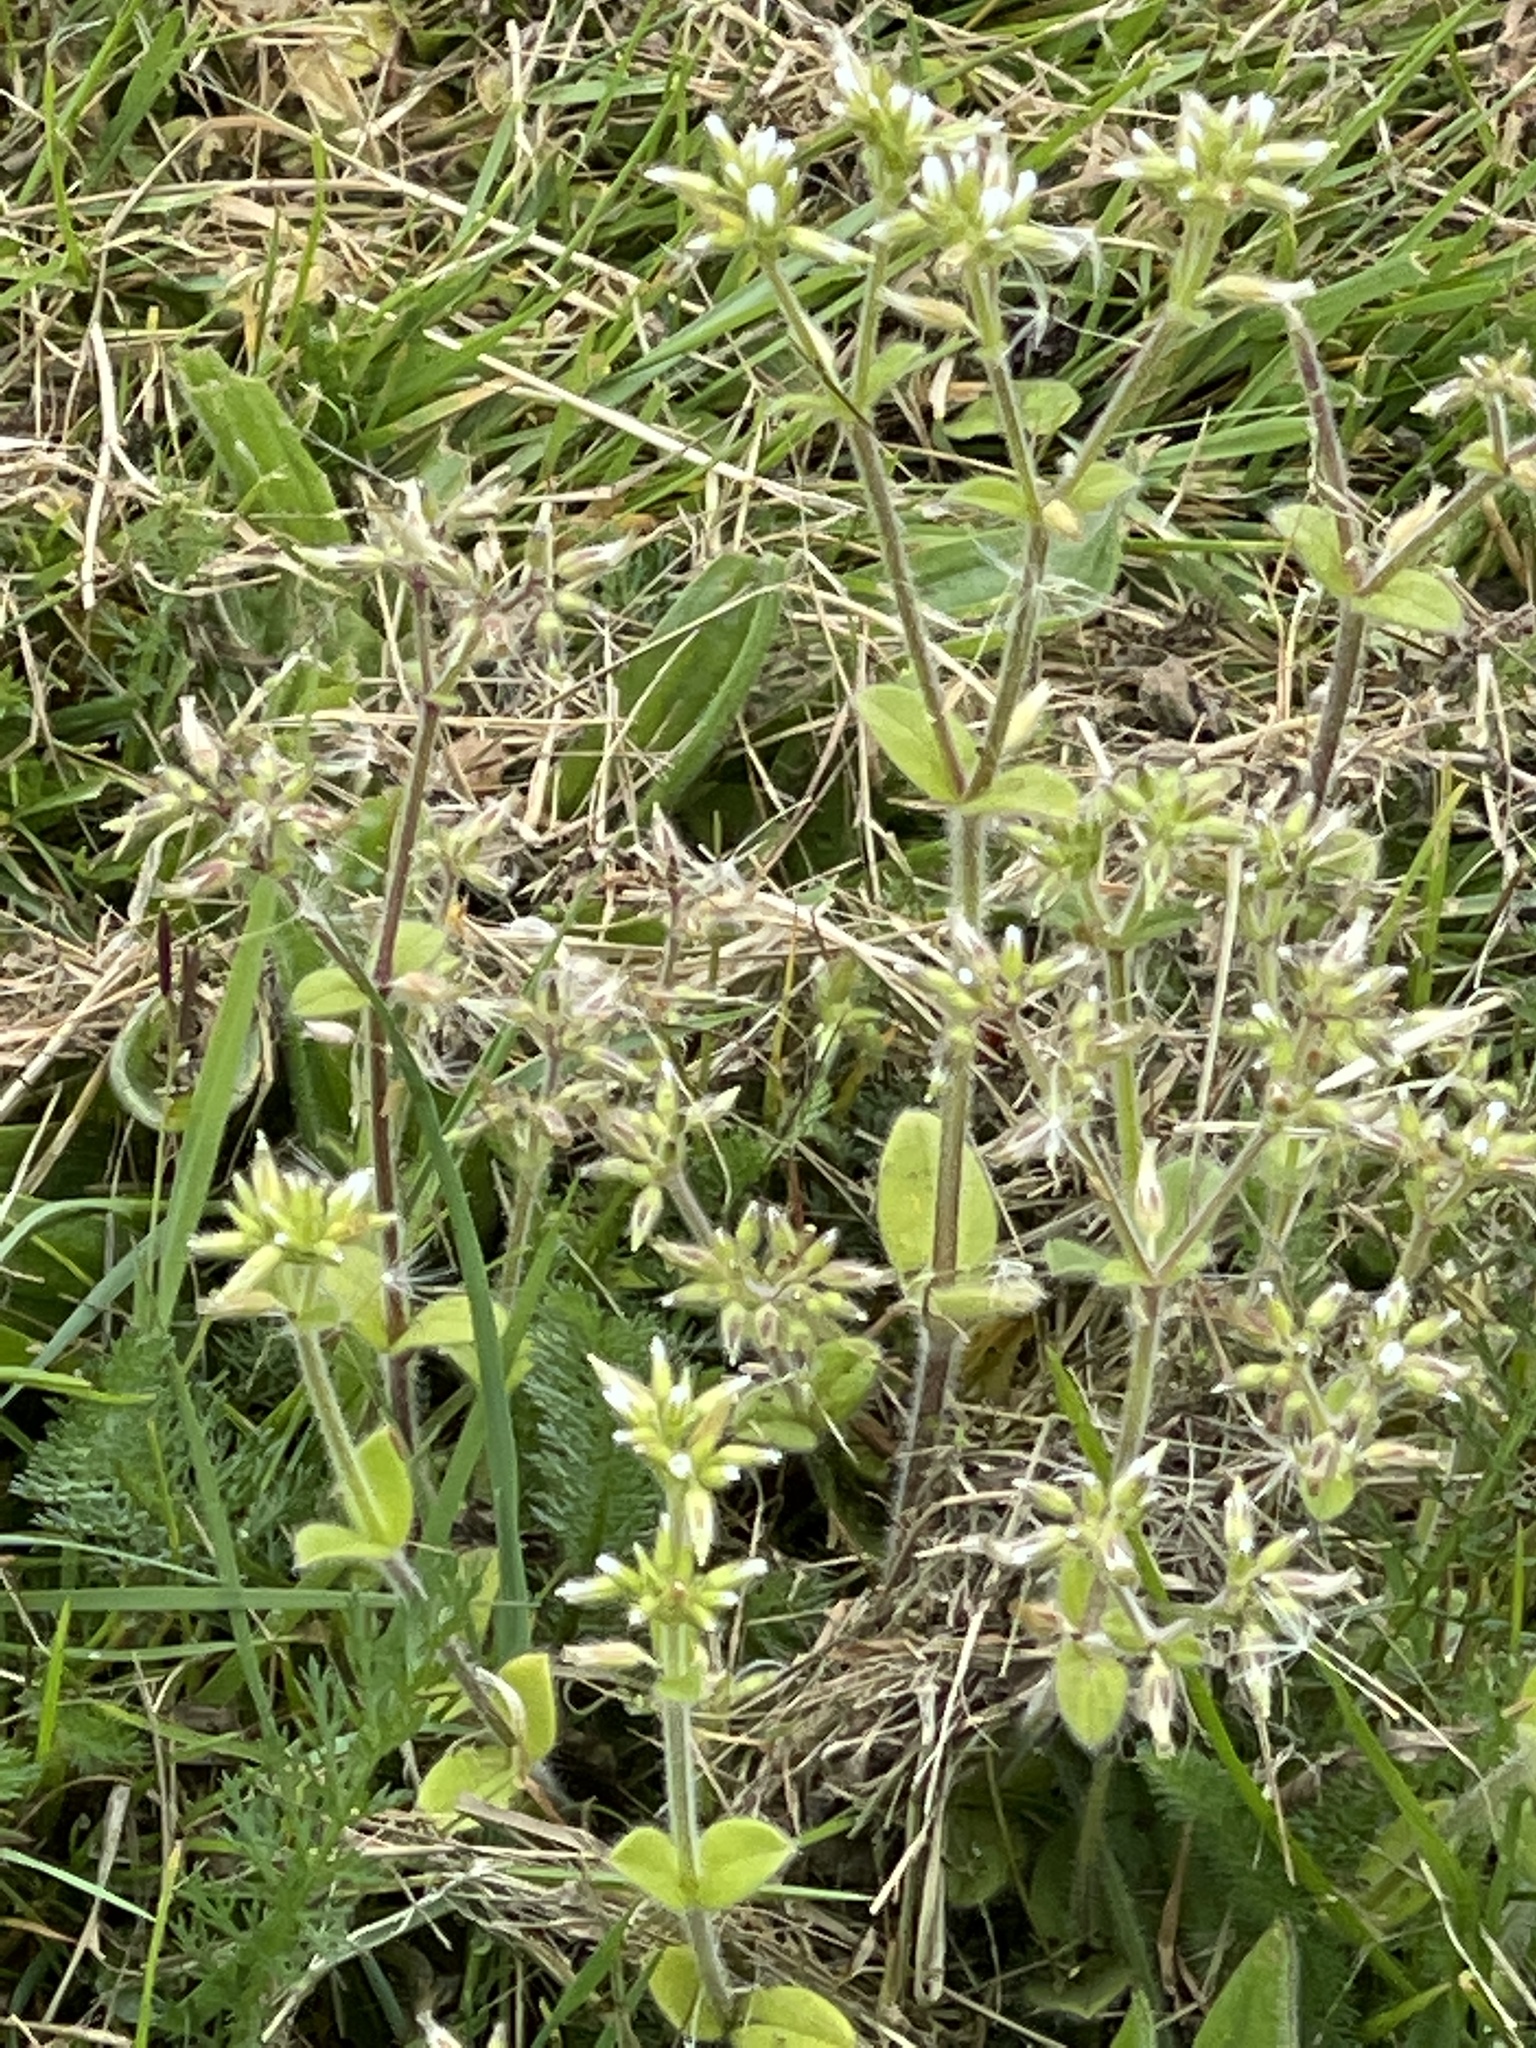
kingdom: Plantae
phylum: Tracheophyta
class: Magnoliopsida
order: Caryophyllales
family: Caryophyllaceae
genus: Cerastium
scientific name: Cerastium glomeratum
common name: Sticky chickweed
